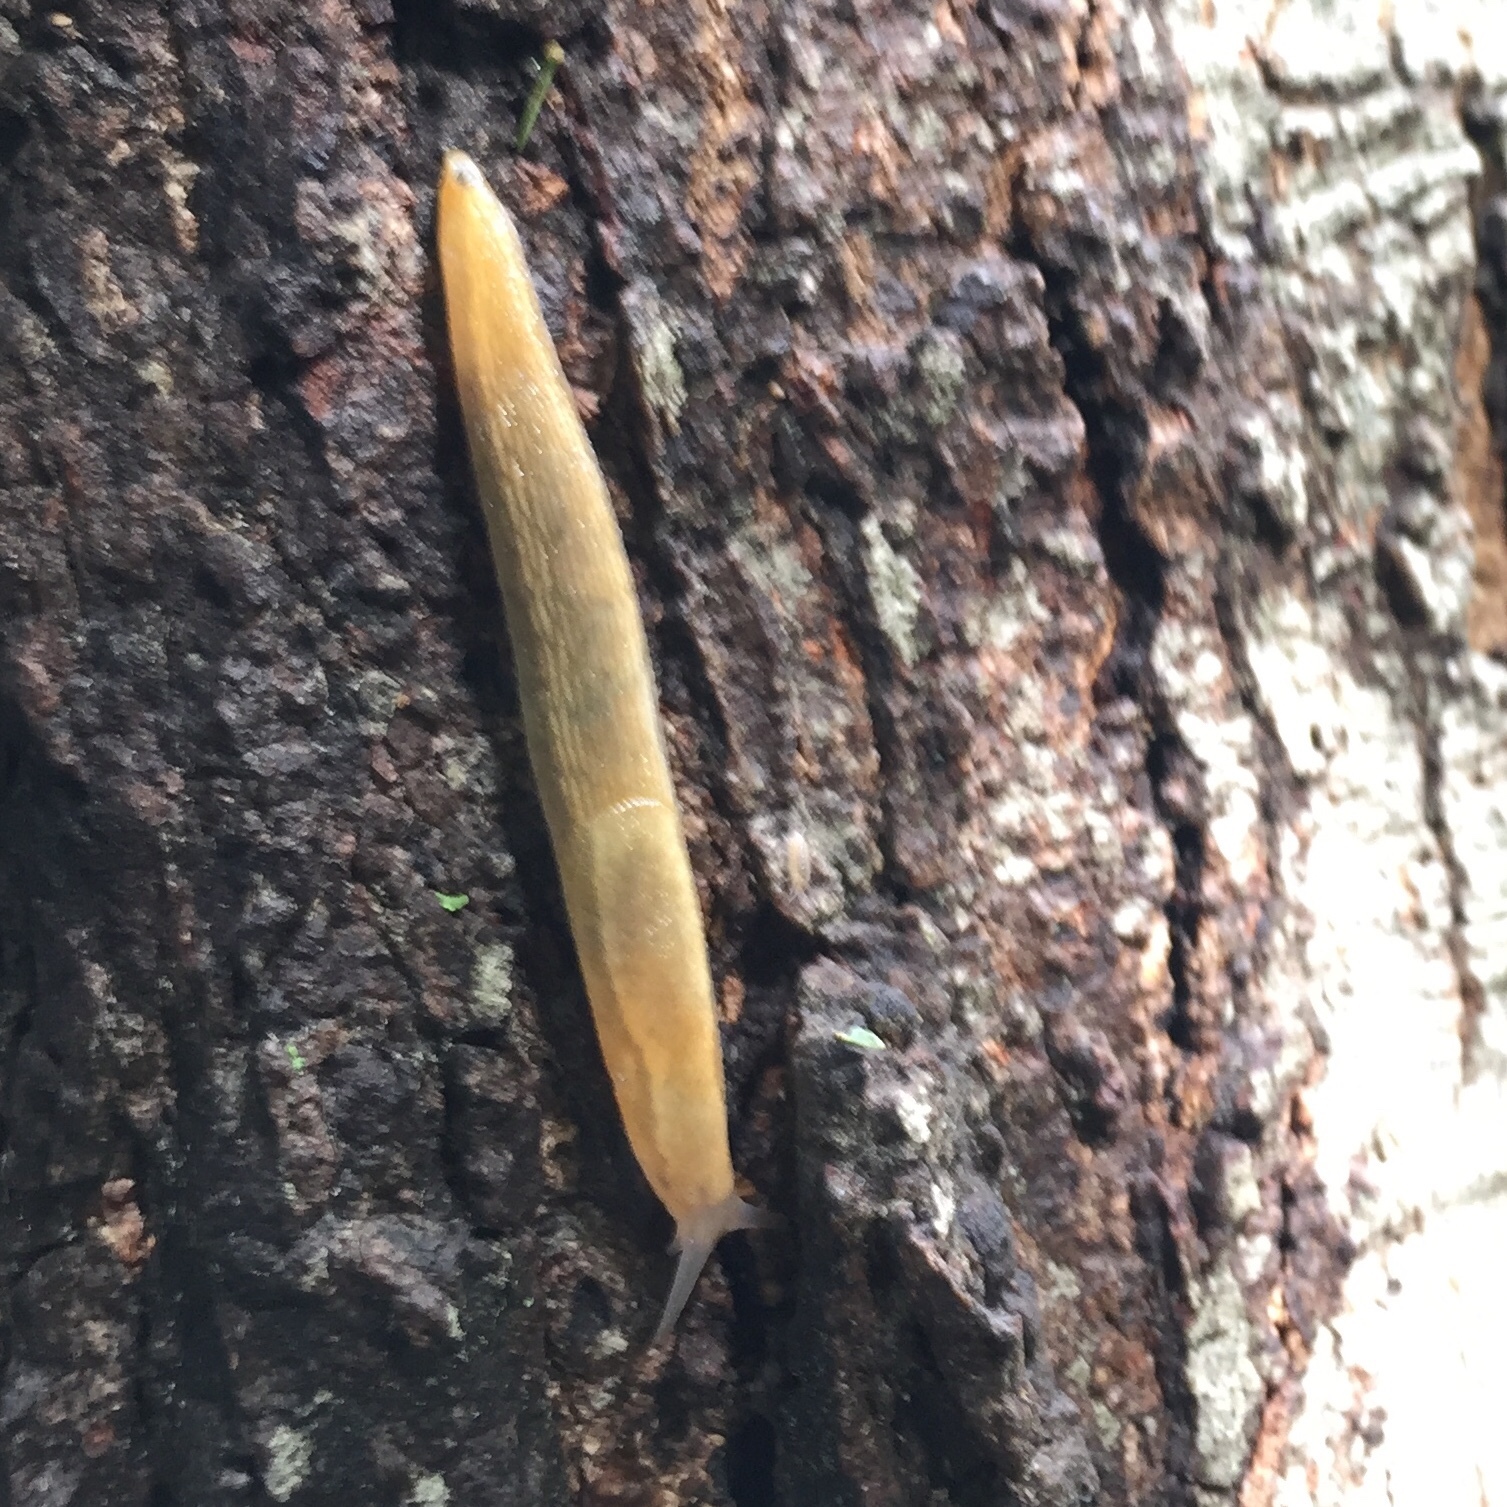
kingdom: Animalia
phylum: Mollusca
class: Gastropoda
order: Stylommatophora
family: Arionidae
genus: Arion
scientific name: Arion subfuscus
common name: Dusky arion
